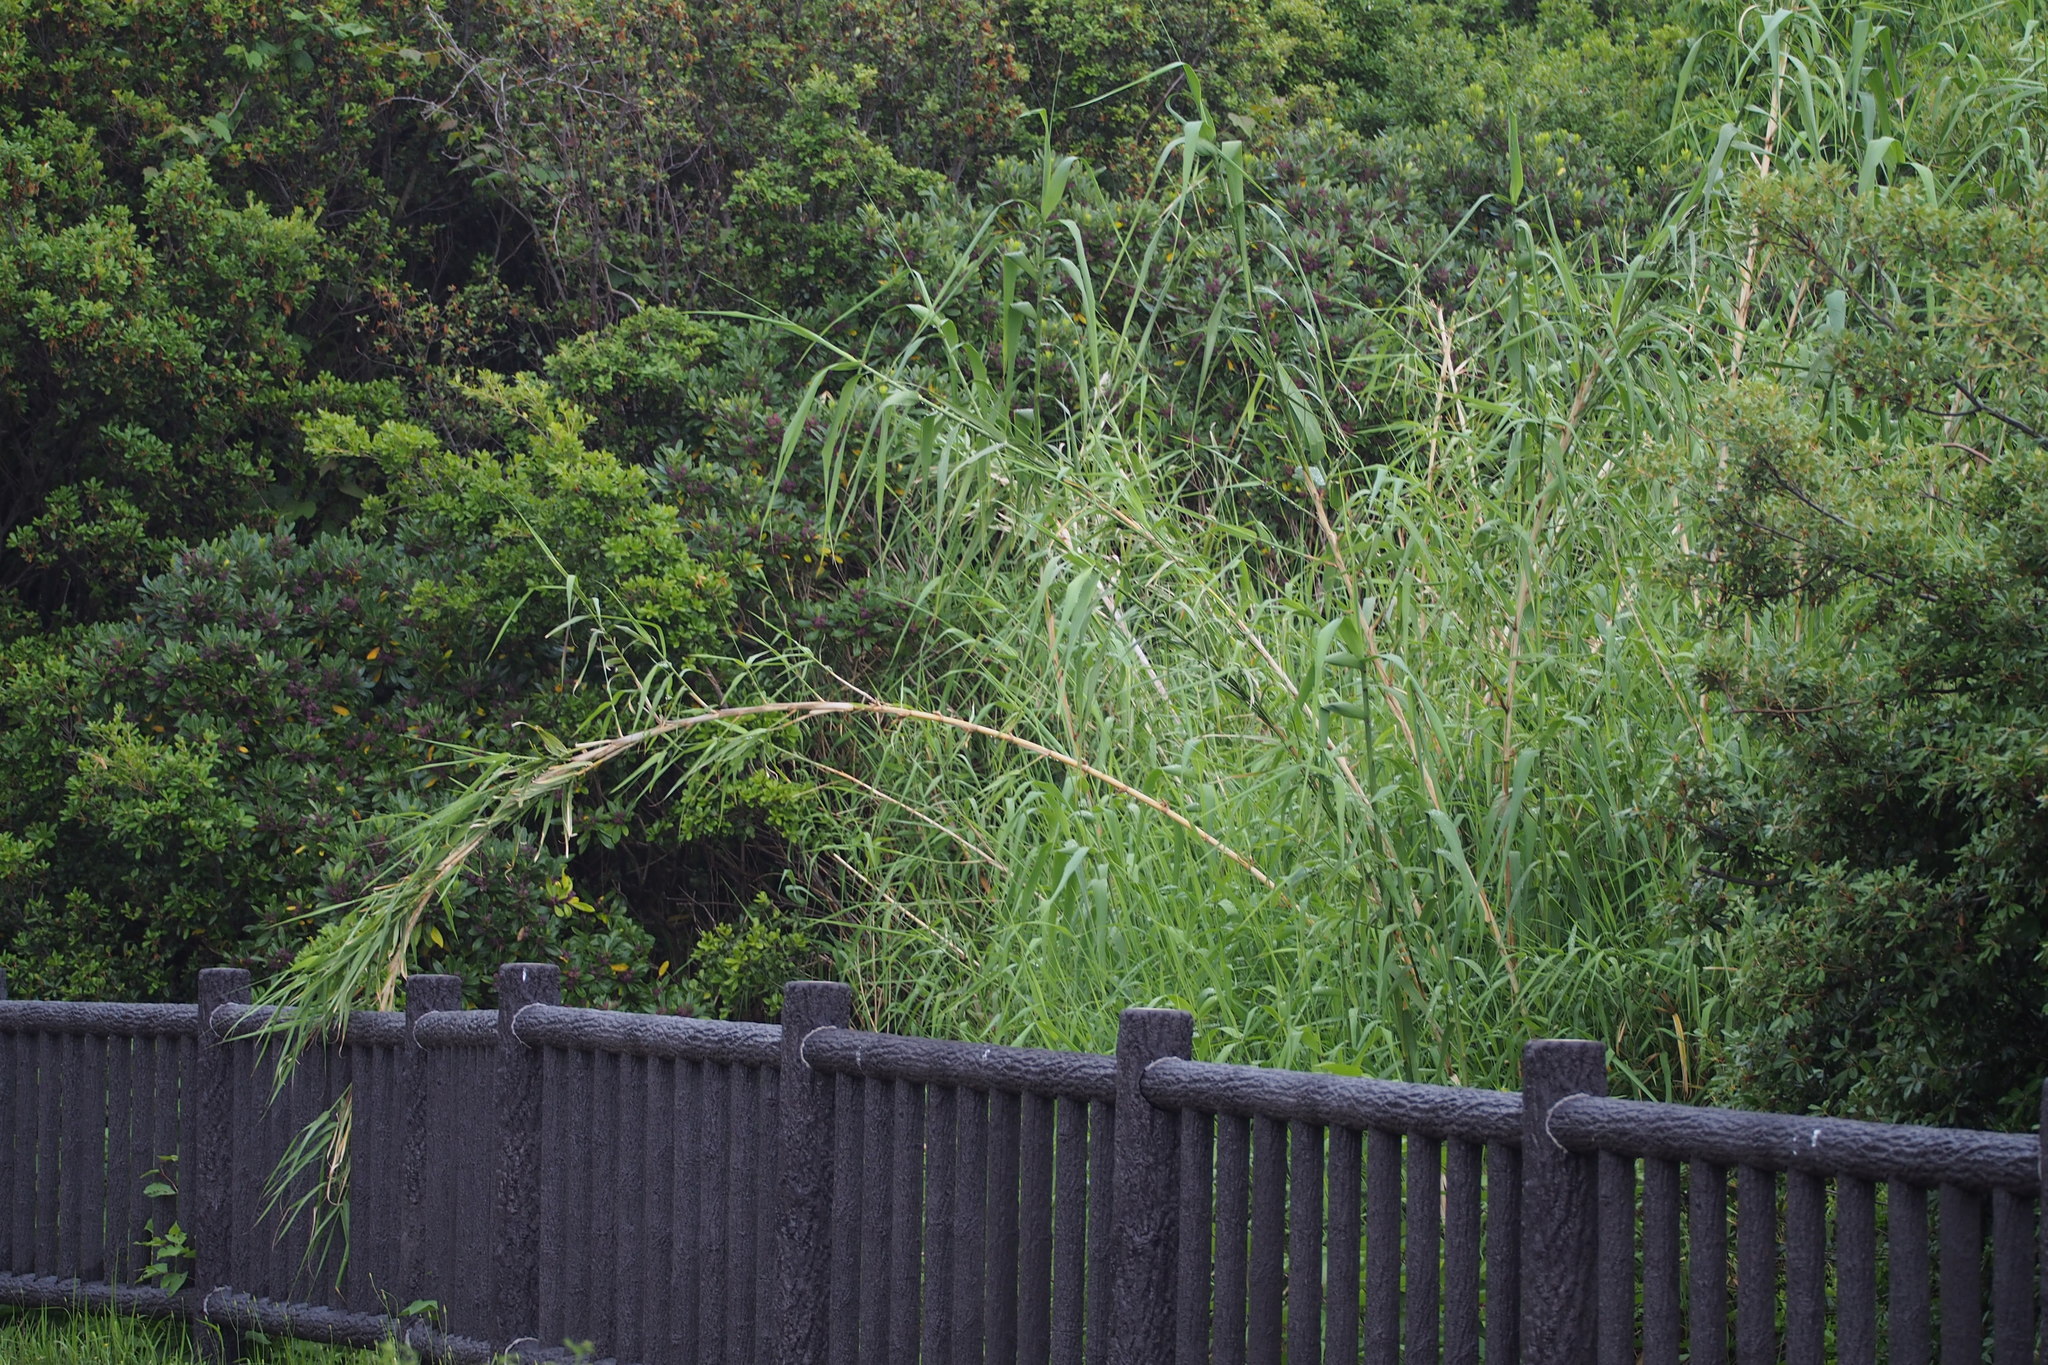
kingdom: Plantae
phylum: Tracheophyta
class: Liliopsida
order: Poales
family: Poaceae
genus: Arundo
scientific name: Arundo donax
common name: Giant reed
